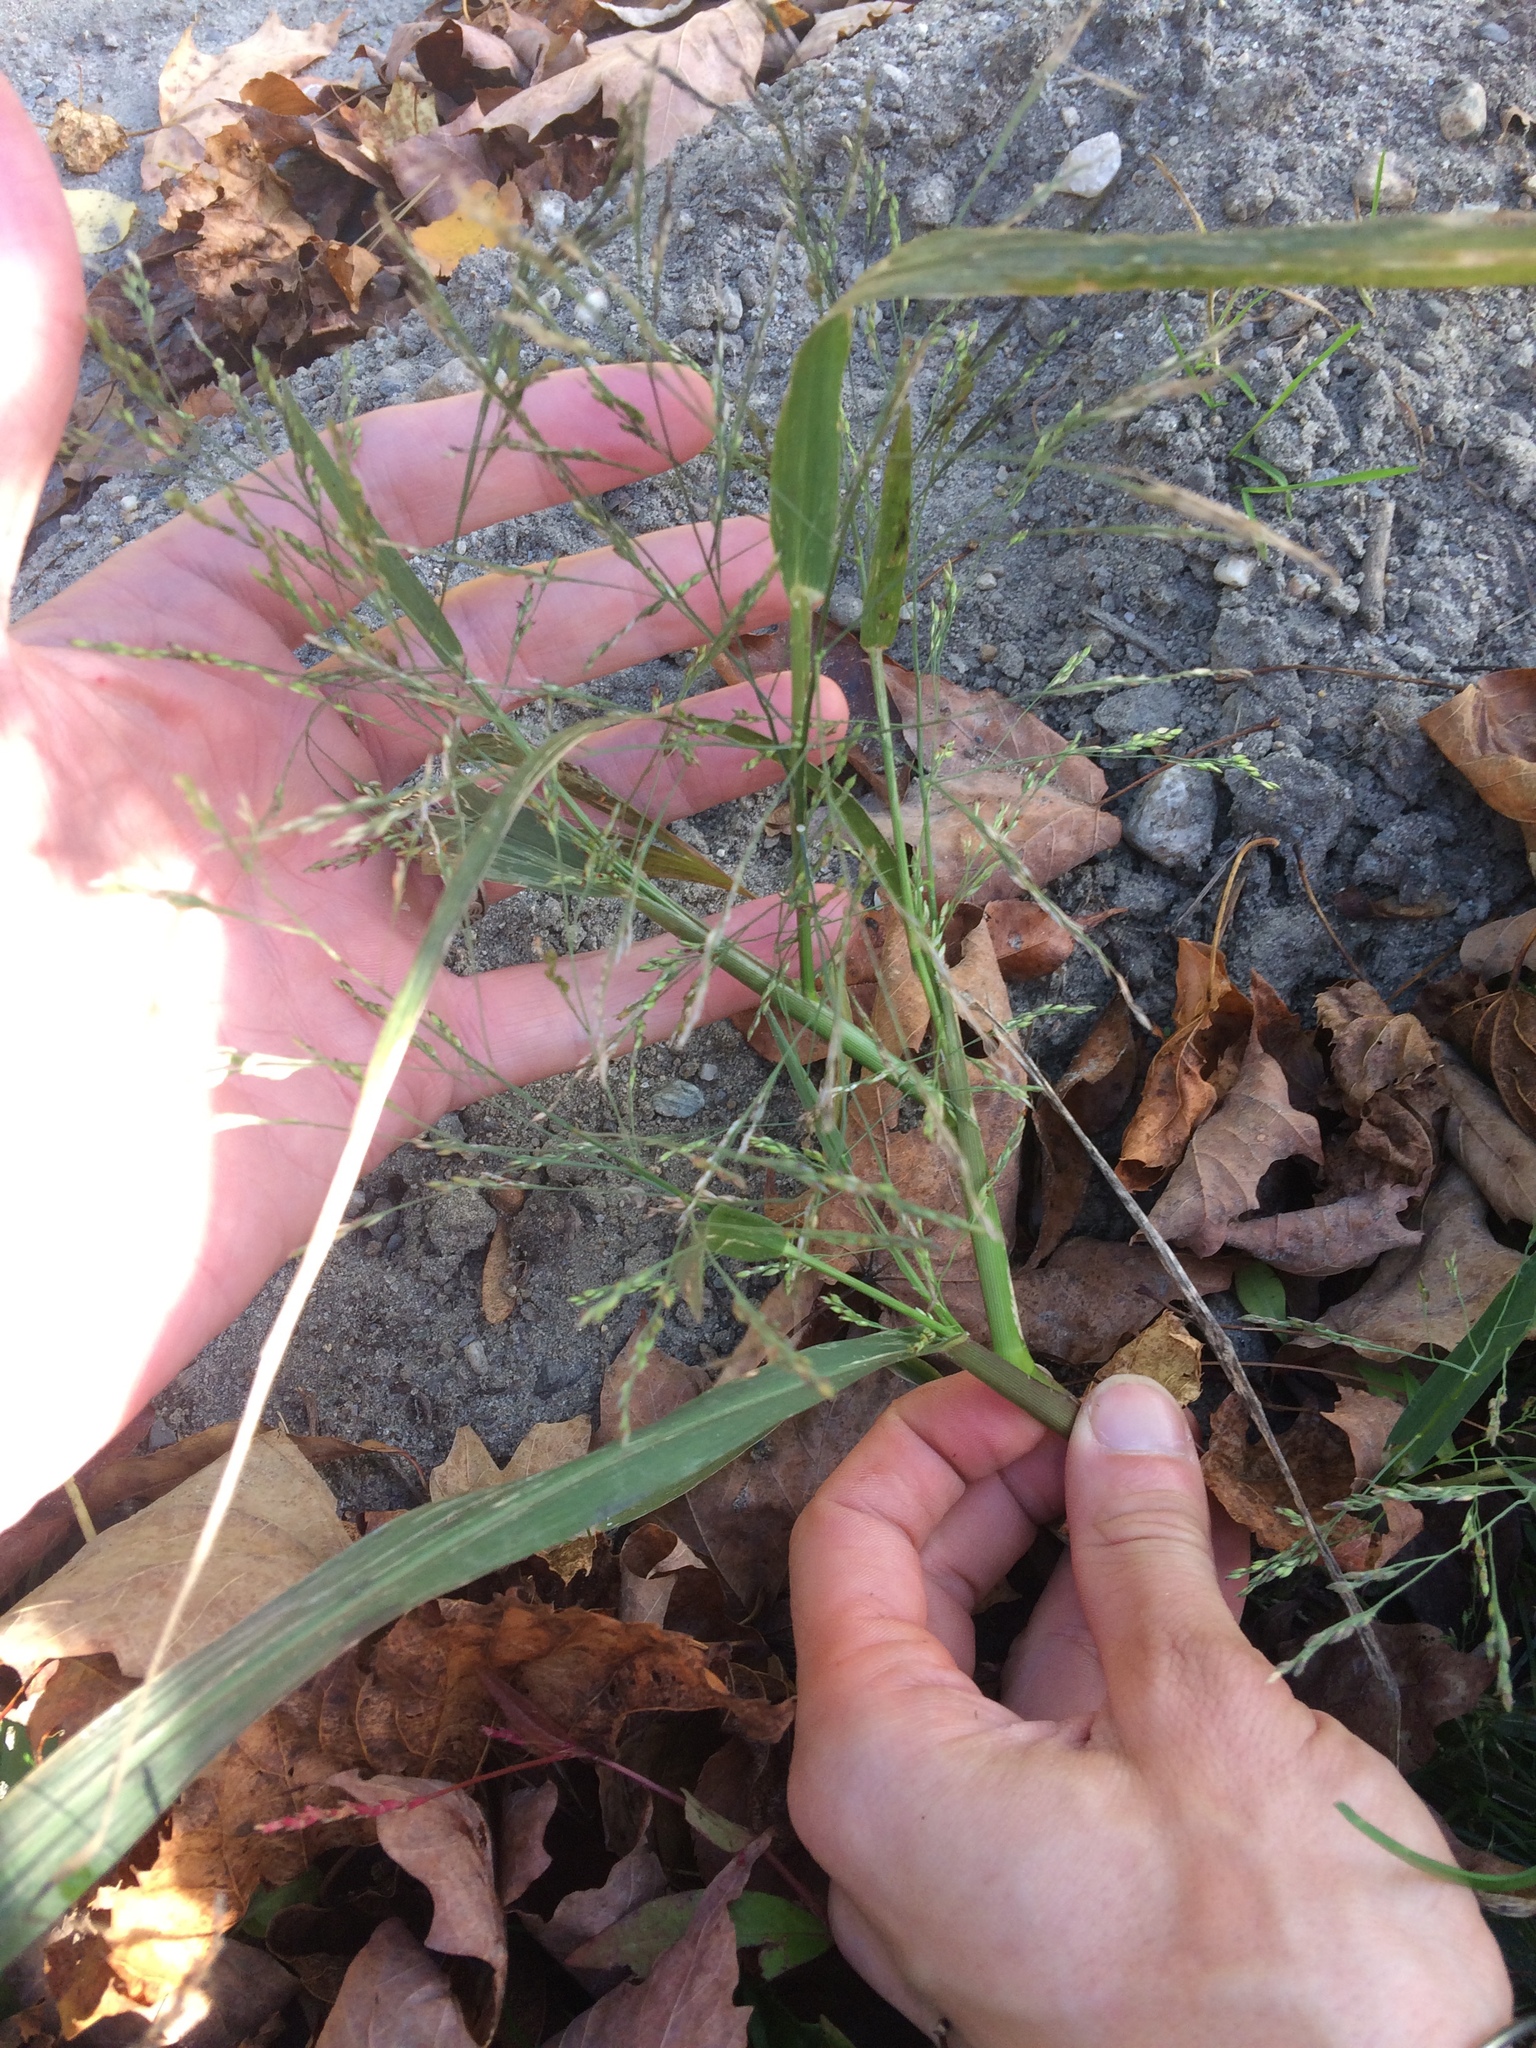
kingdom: Plantae
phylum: Tracheophyta
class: Liliopsida
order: Poales
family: Poaceae
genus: Panicum
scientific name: Panicum dichotomiflorum
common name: Autumn millet
